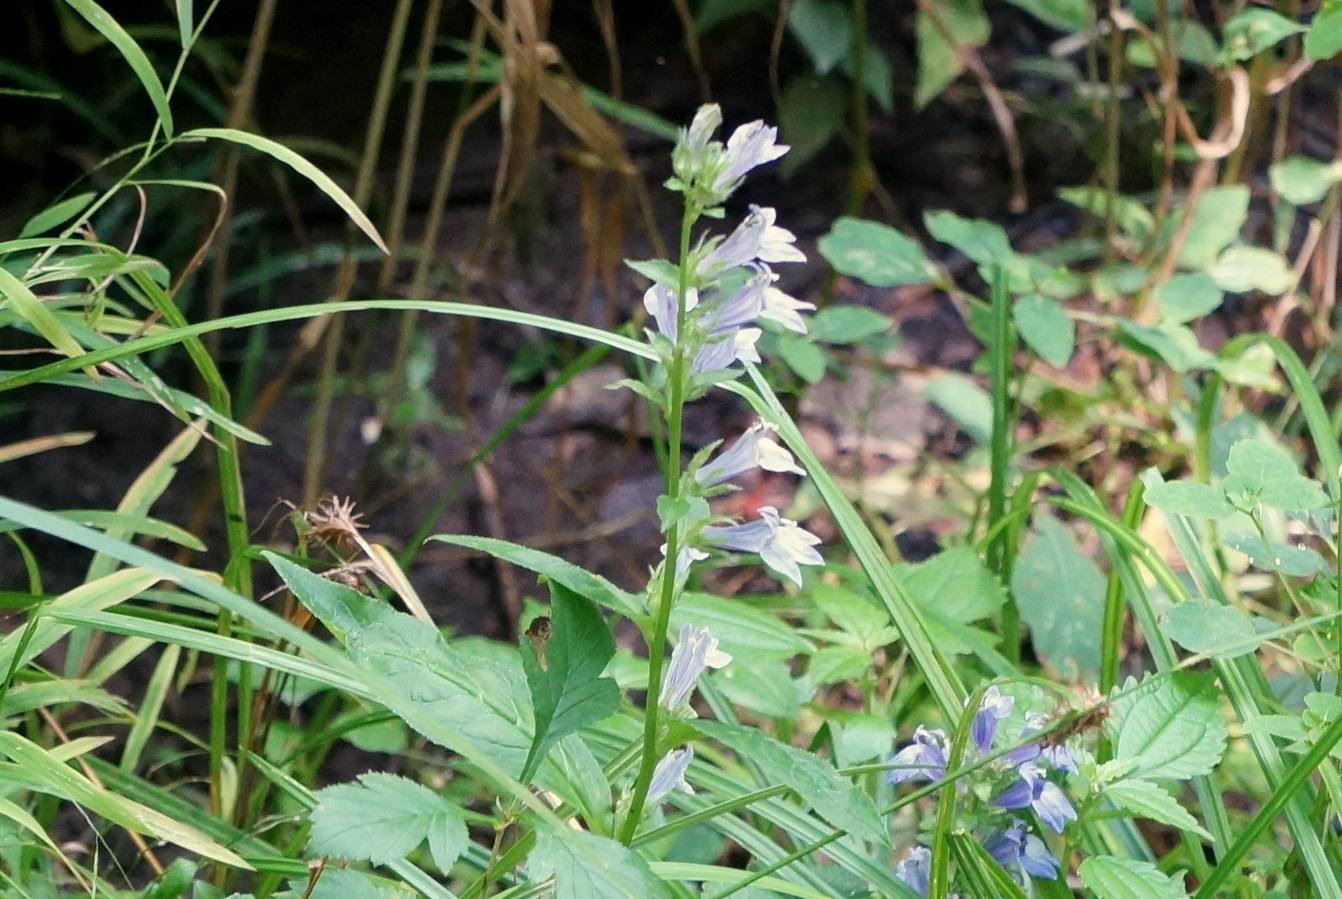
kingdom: Plantae
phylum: Tracheophyta
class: Magnoliopsida
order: Asterales
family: Campanulaceae
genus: Lobelia
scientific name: Lobelia siphilitica
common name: Great lobelia
